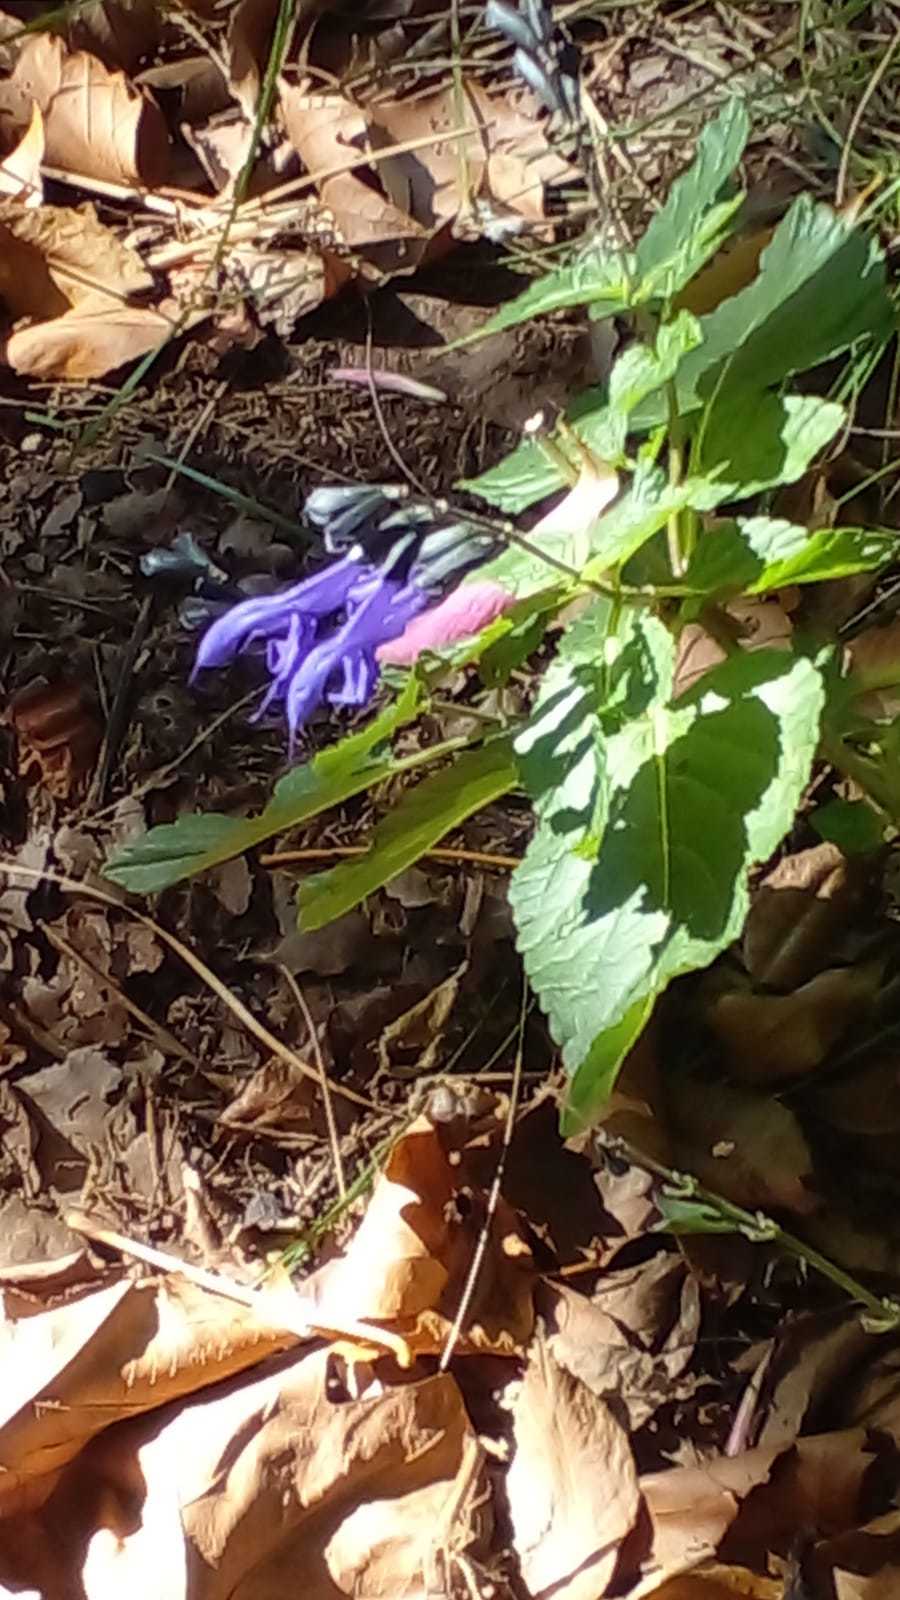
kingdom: Plantae
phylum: Tracheophyta
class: Magnoliopsida
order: Lamiales
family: Lamiaceae
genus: Salvia
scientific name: Salvia guaranitica
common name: Anise-scented sage
